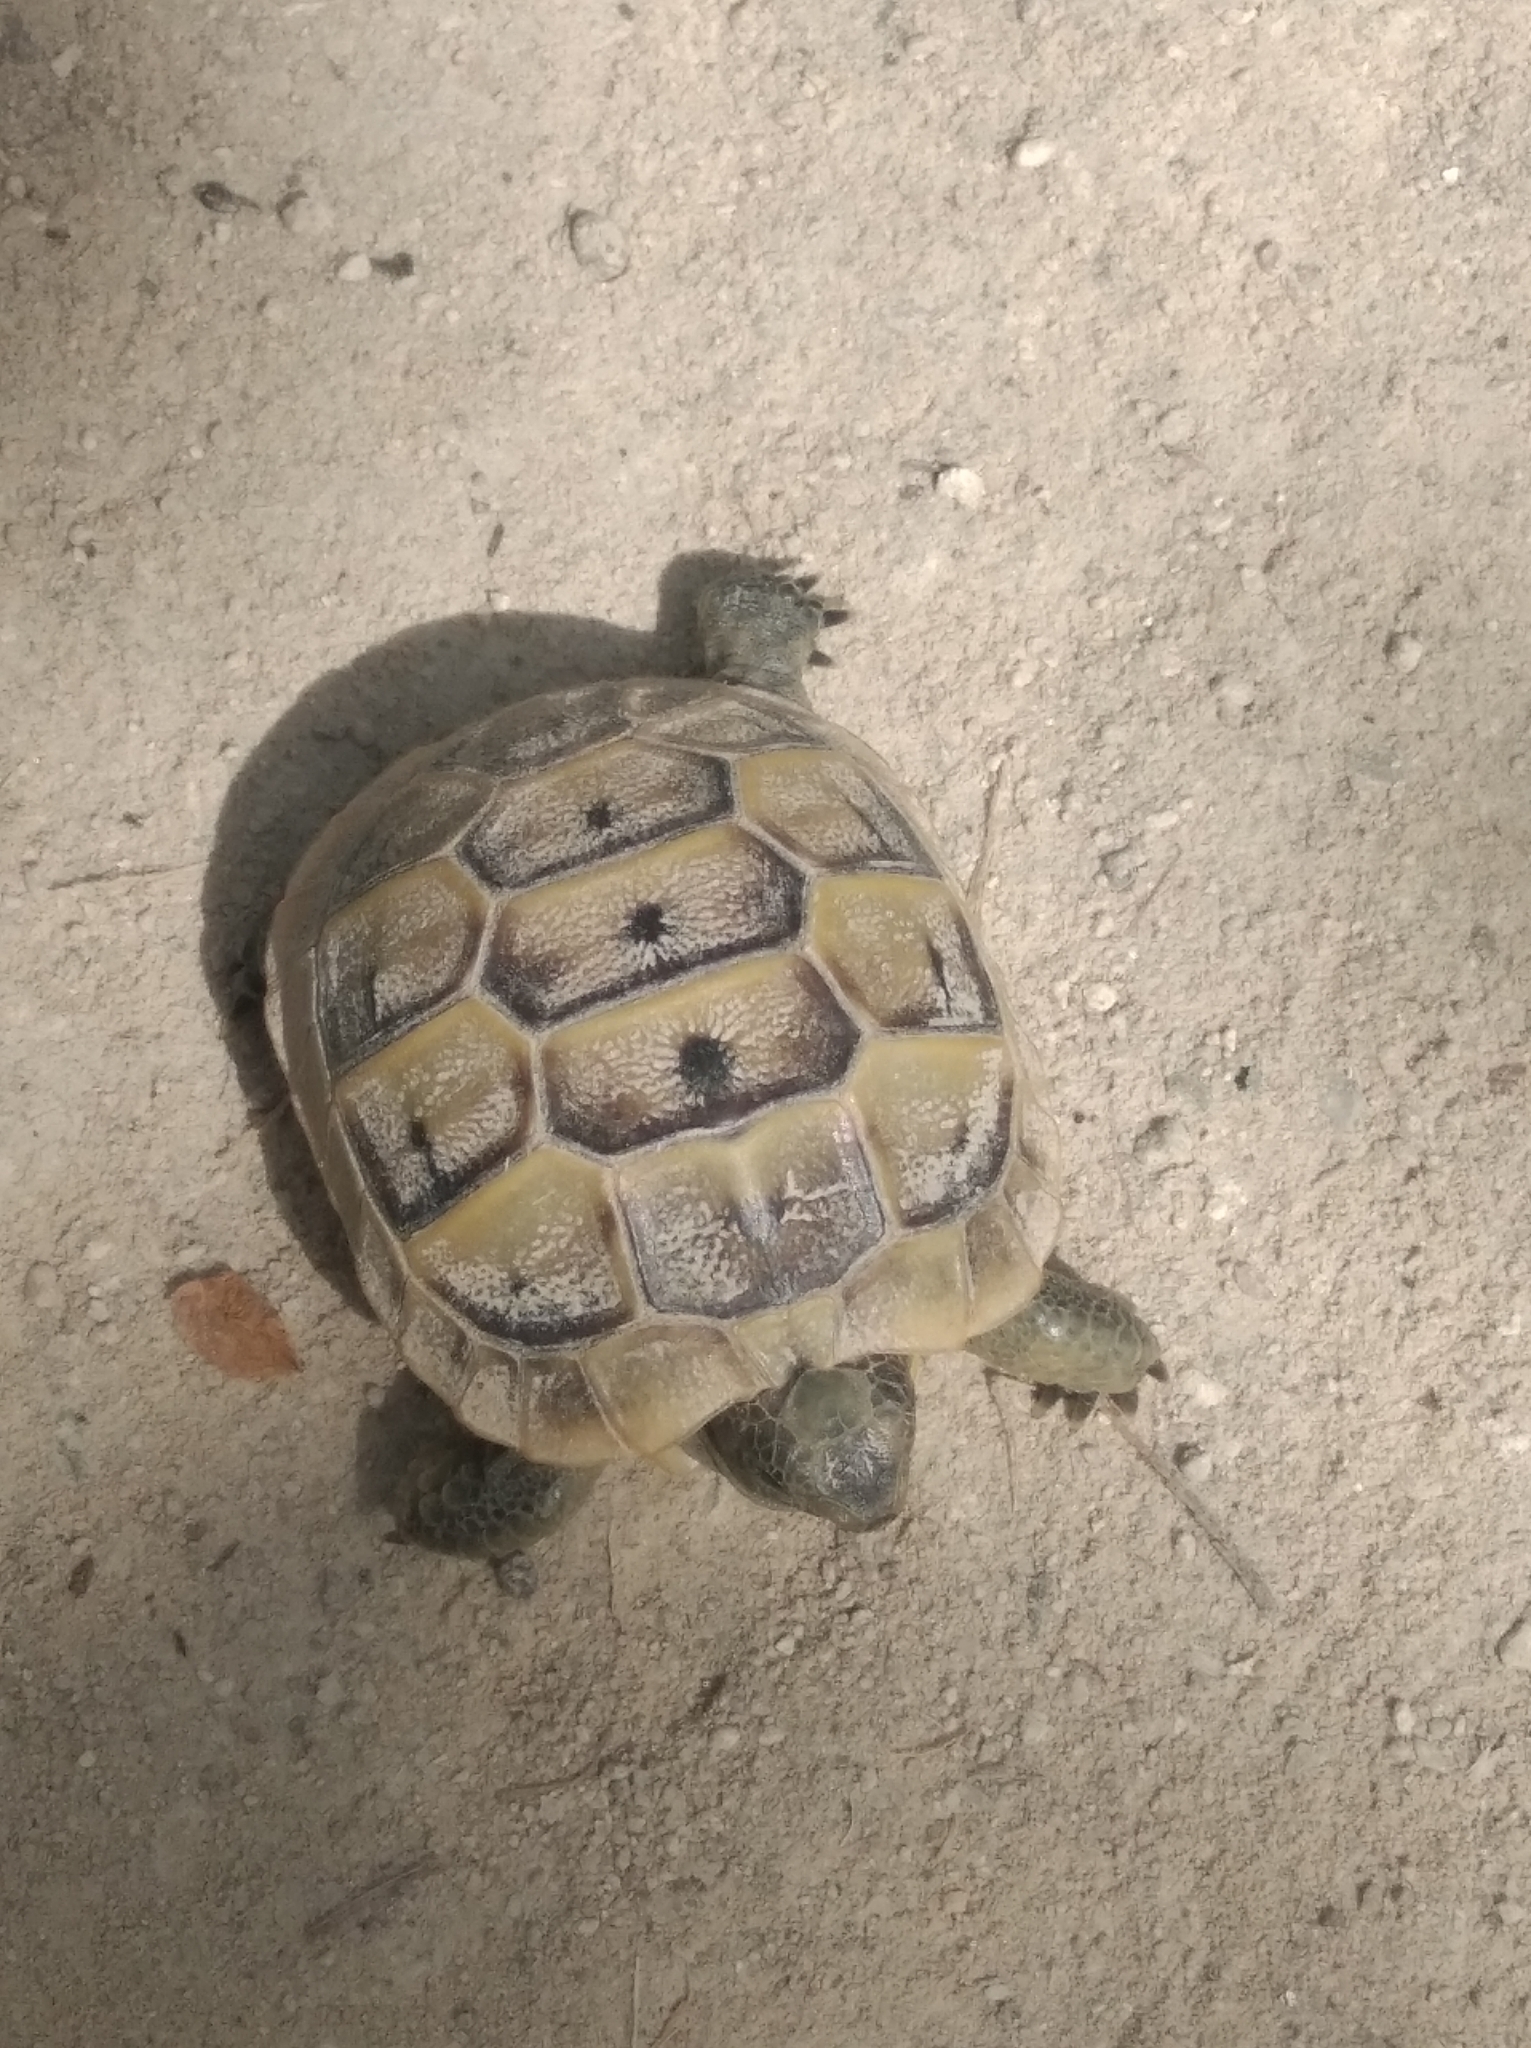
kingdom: Animalia
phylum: Chordata
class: Testudines
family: Testudinidae
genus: Testudo
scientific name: Testudo graeca
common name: Common tortoise
